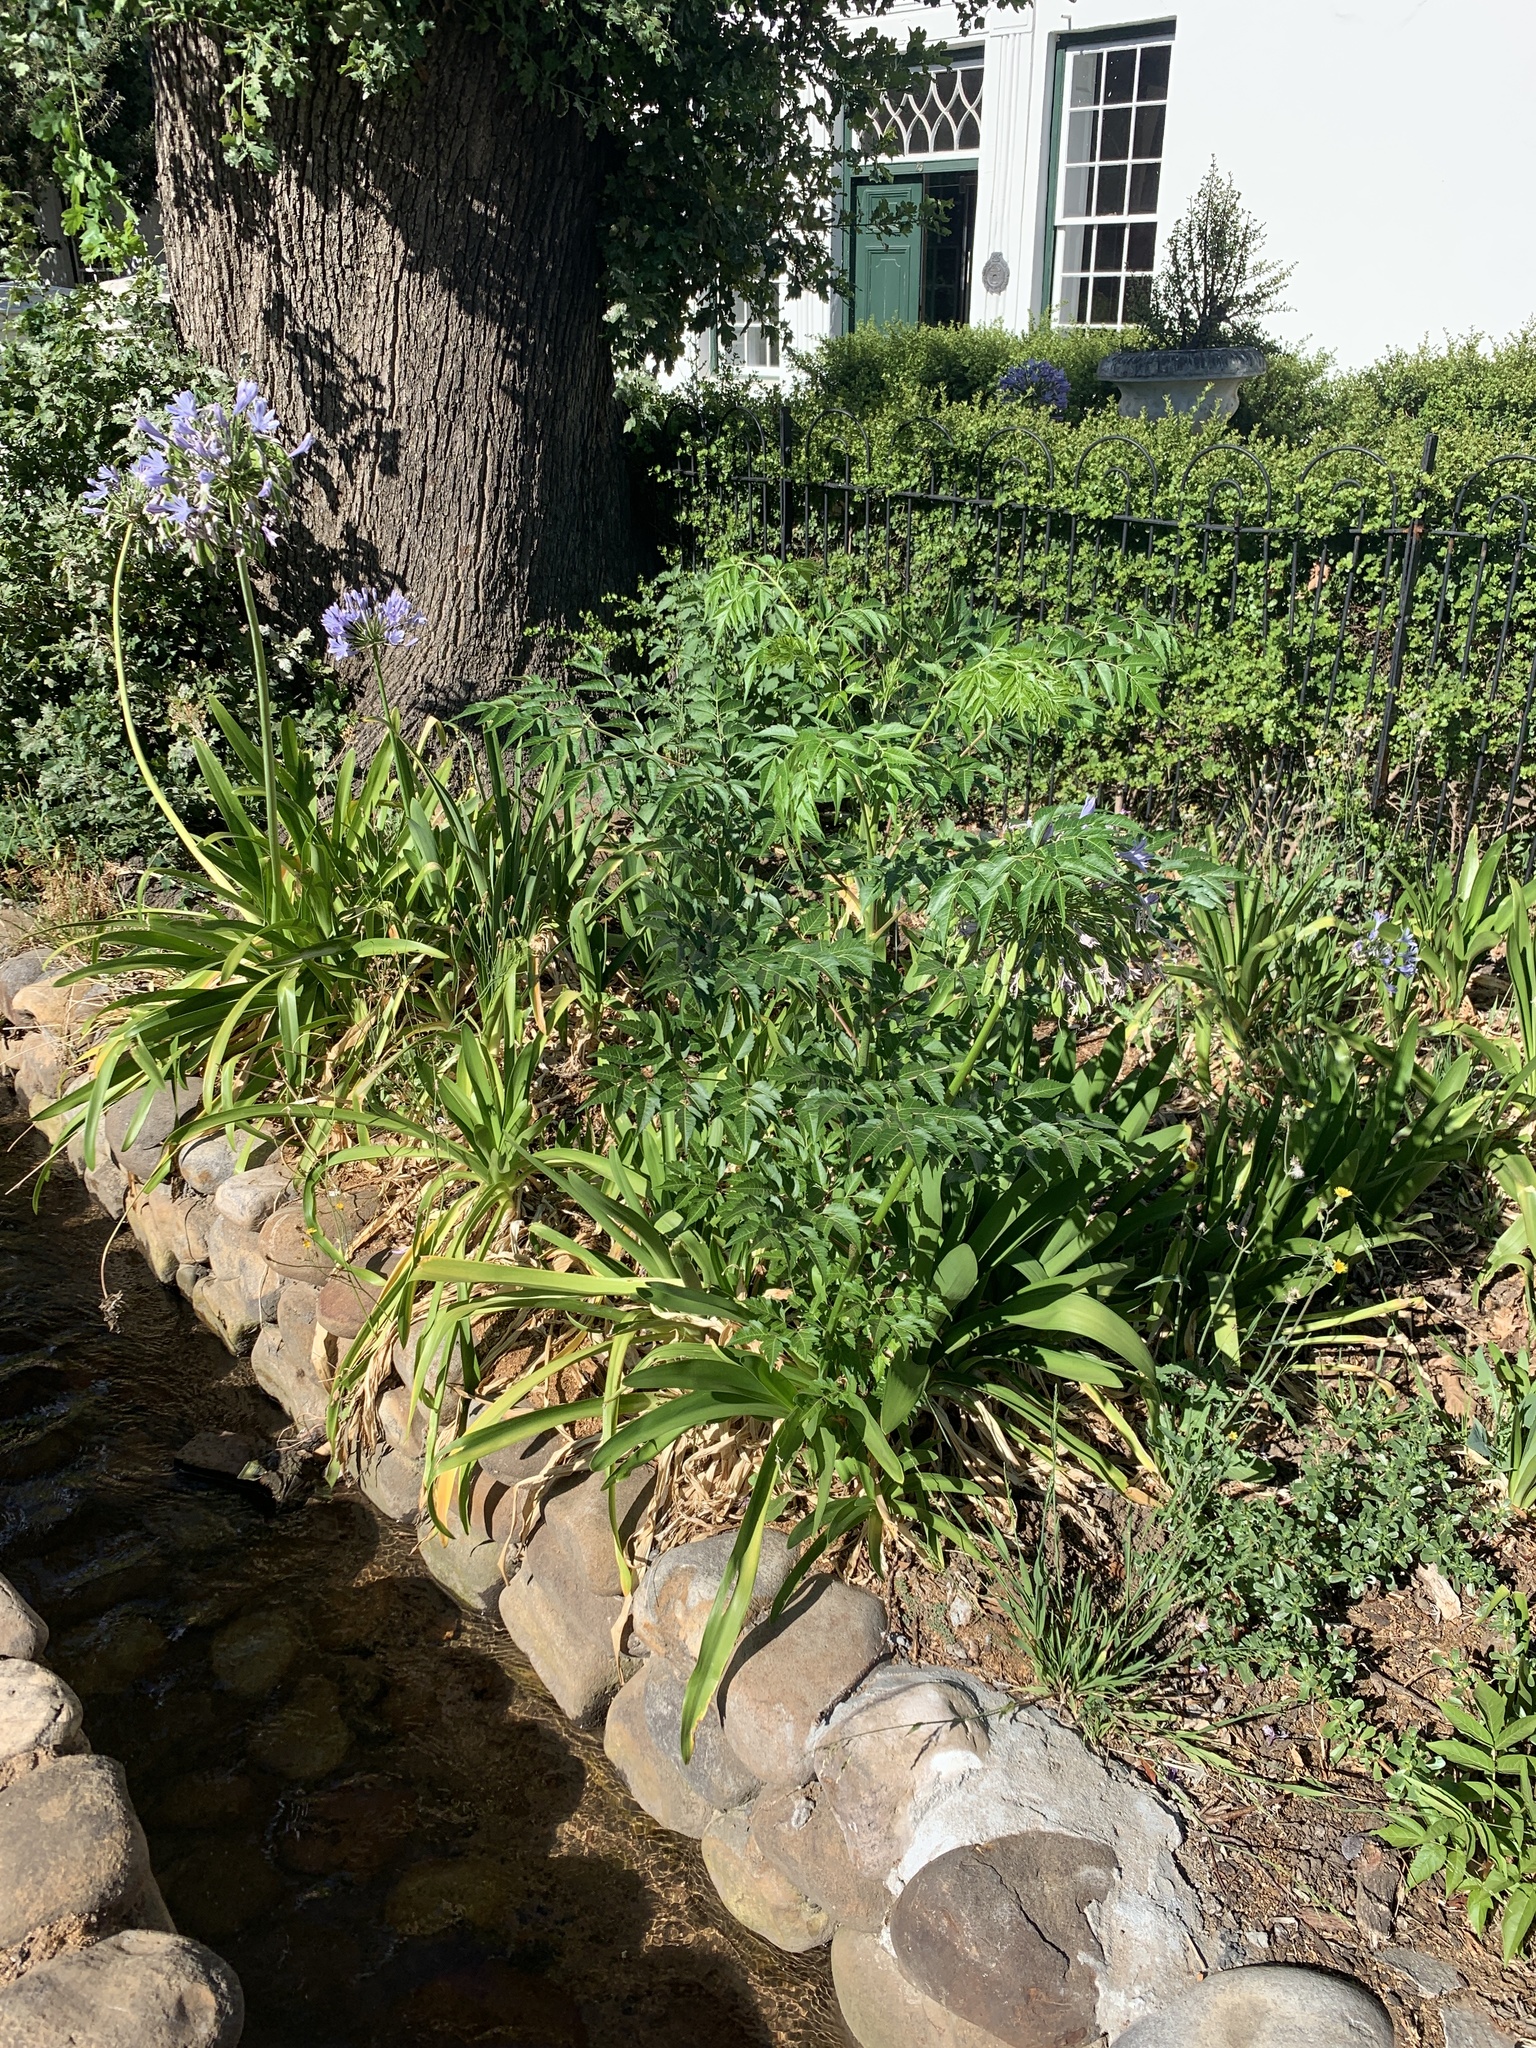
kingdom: Plantae
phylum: Tracheophyta
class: Magnoliopsida
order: Sapindales
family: Meliaceae
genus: Melia
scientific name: Melia azedarach
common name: Chinaberrytree
